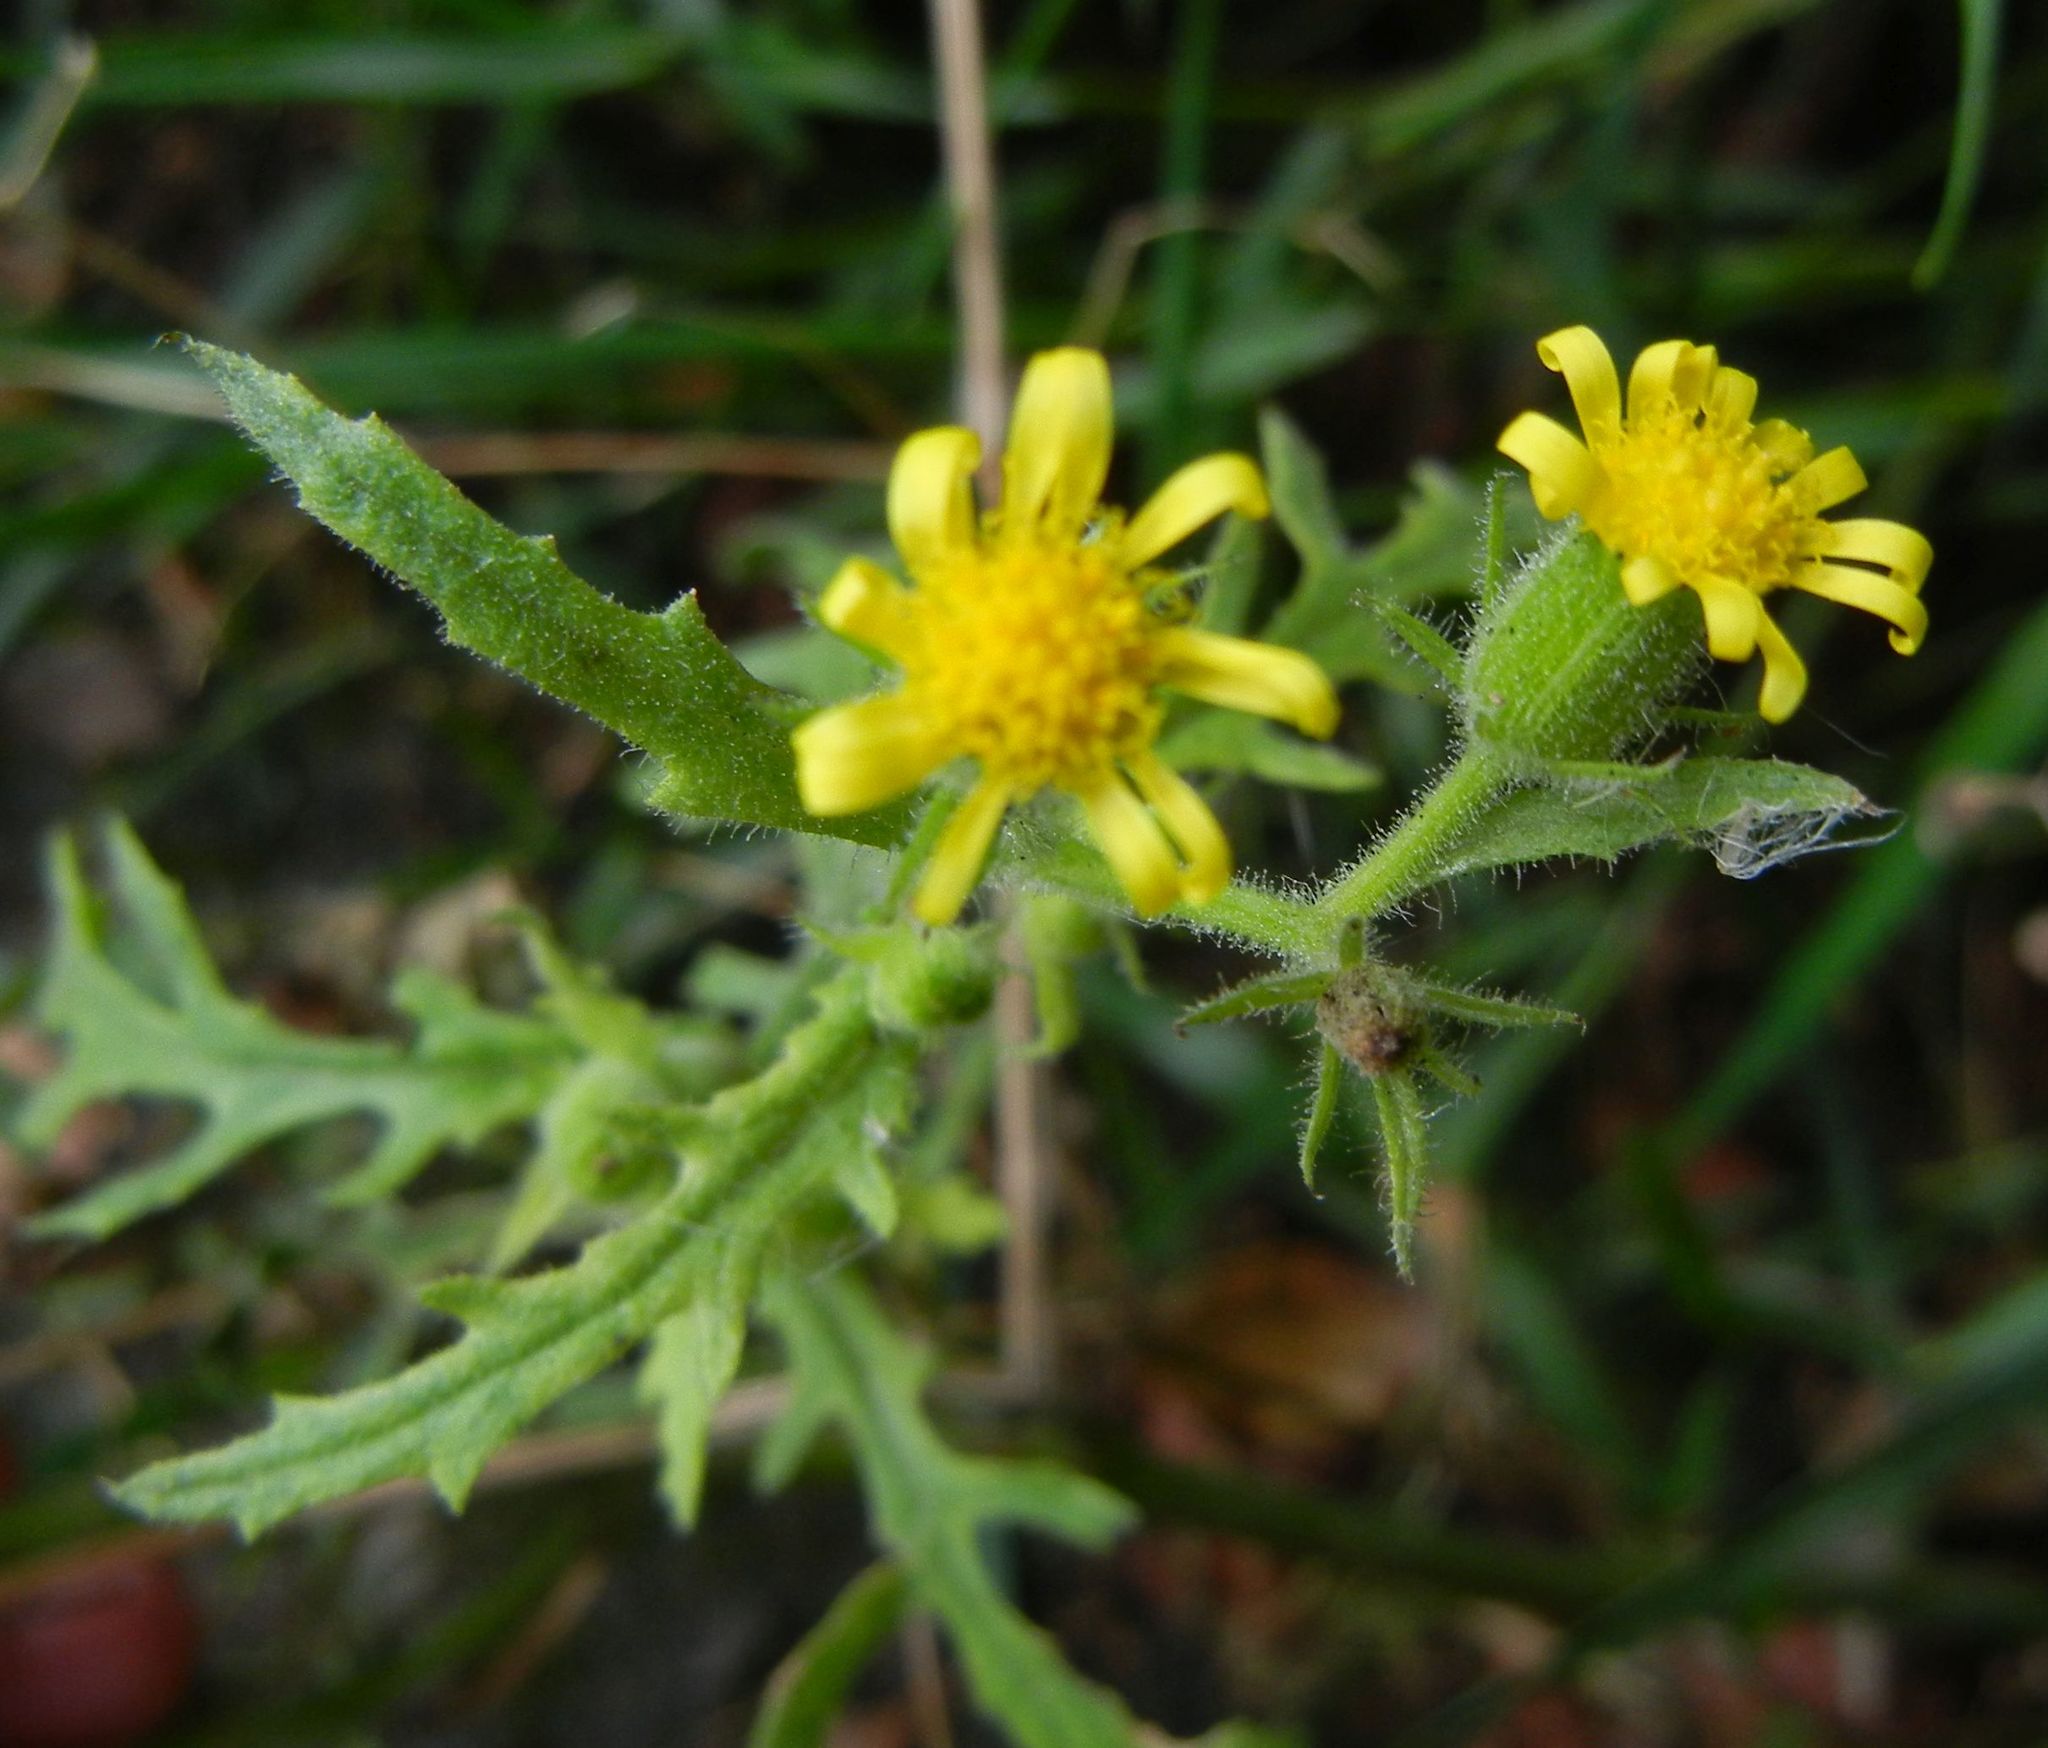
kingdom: Plantae
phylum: Tracheophyta
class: Magnoliopsida
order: Asterales
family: Asteraceae
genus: Senecio
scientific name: Senecio viscosus
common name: Sticky groundsel
